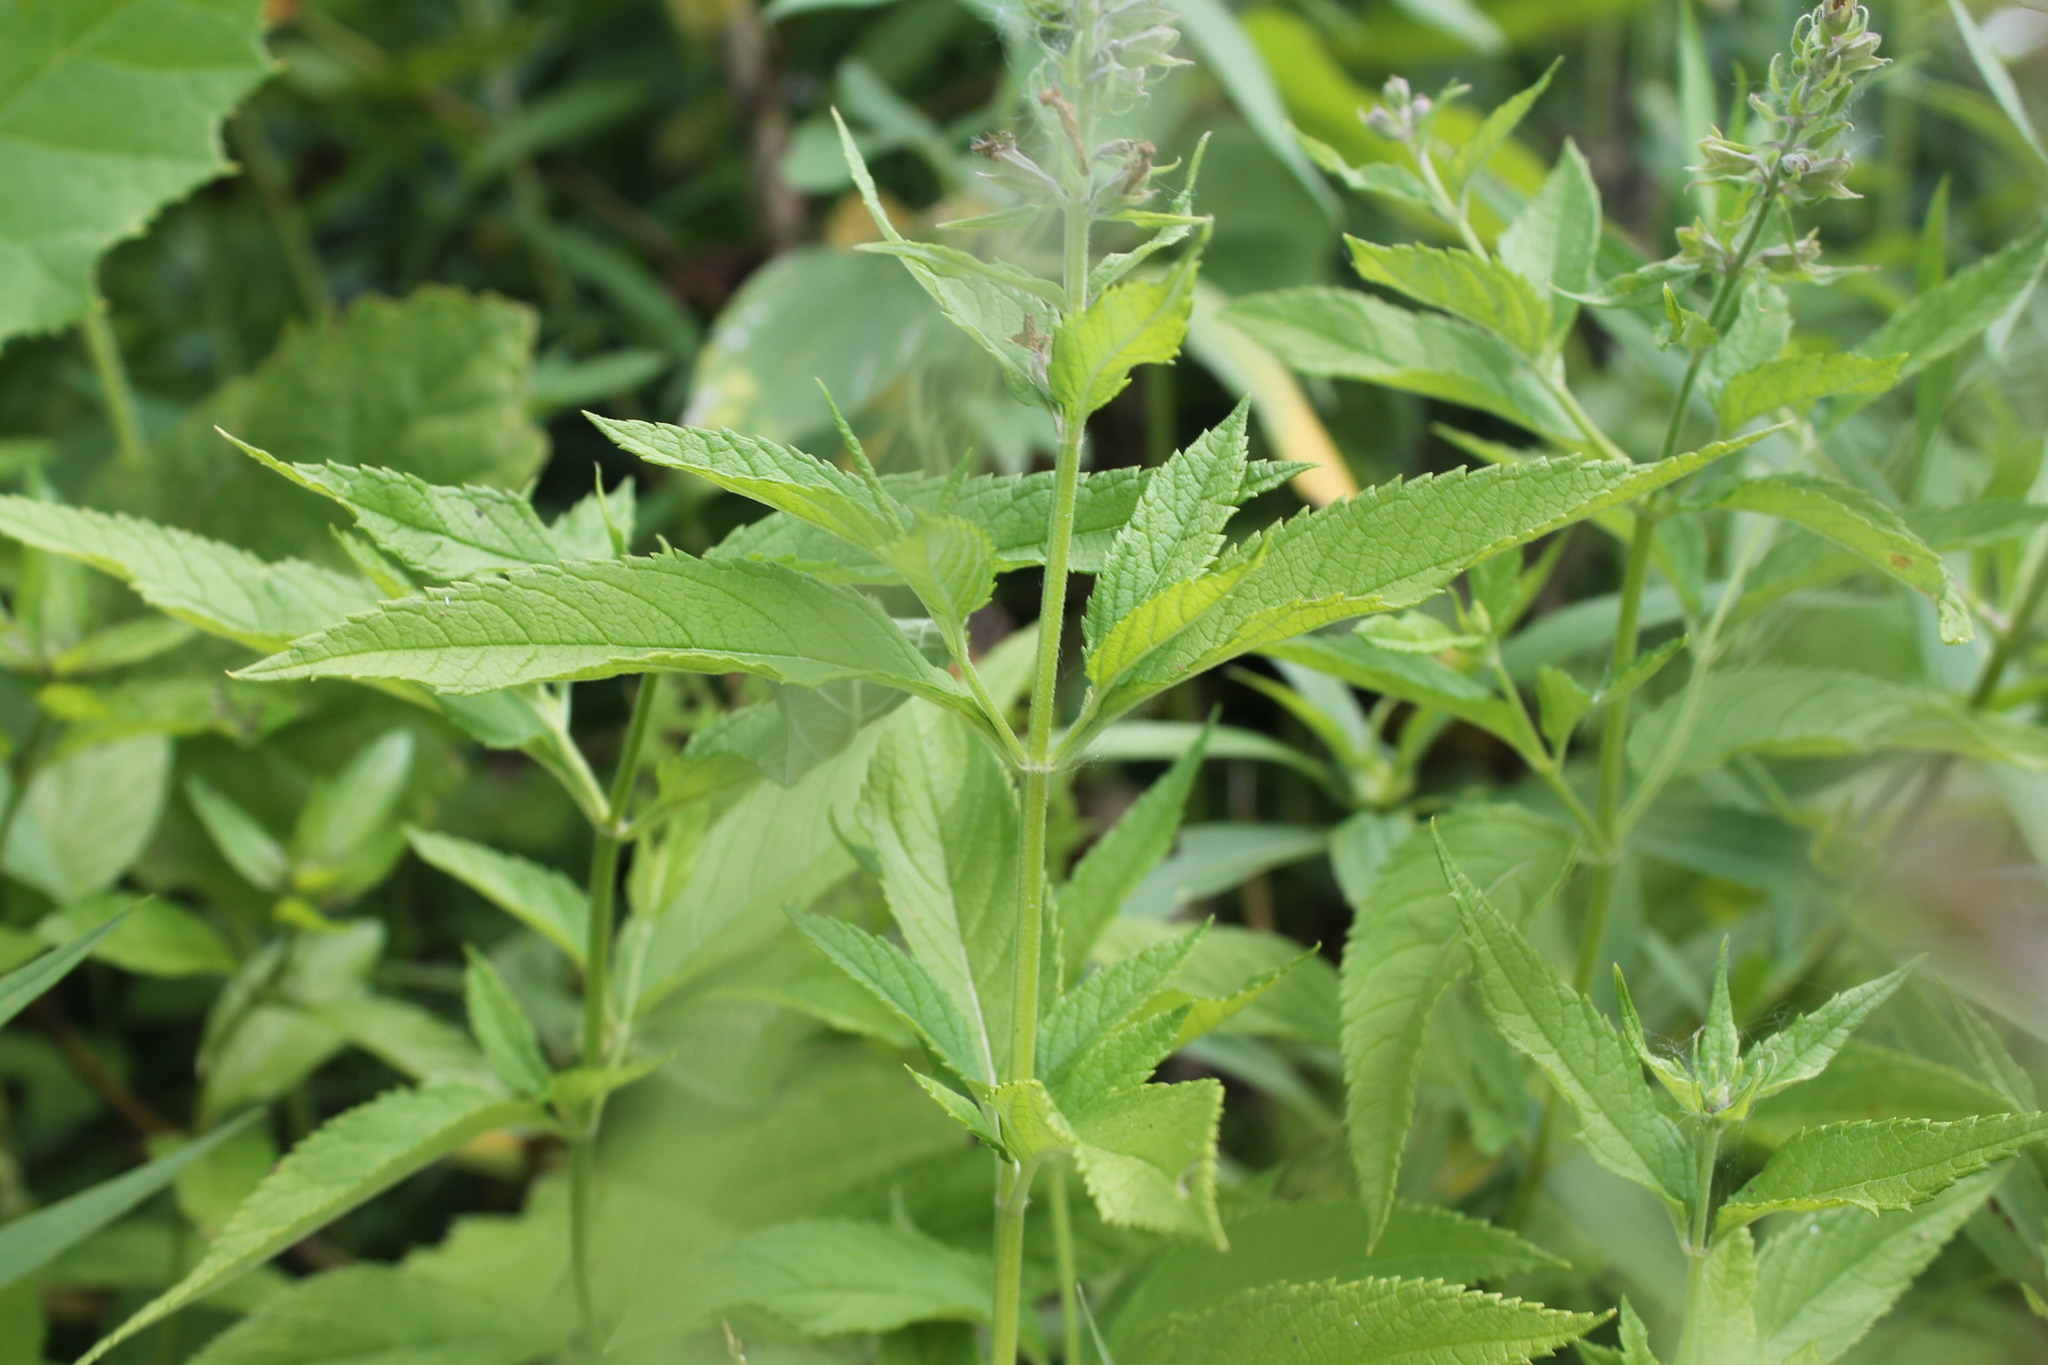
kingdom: Plantae
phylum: Tracheophyta
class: Magnoliopsida
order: Lamiales
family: Lamiaceae
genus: Teucrium
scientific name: Teucrium canadense
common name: American germander
